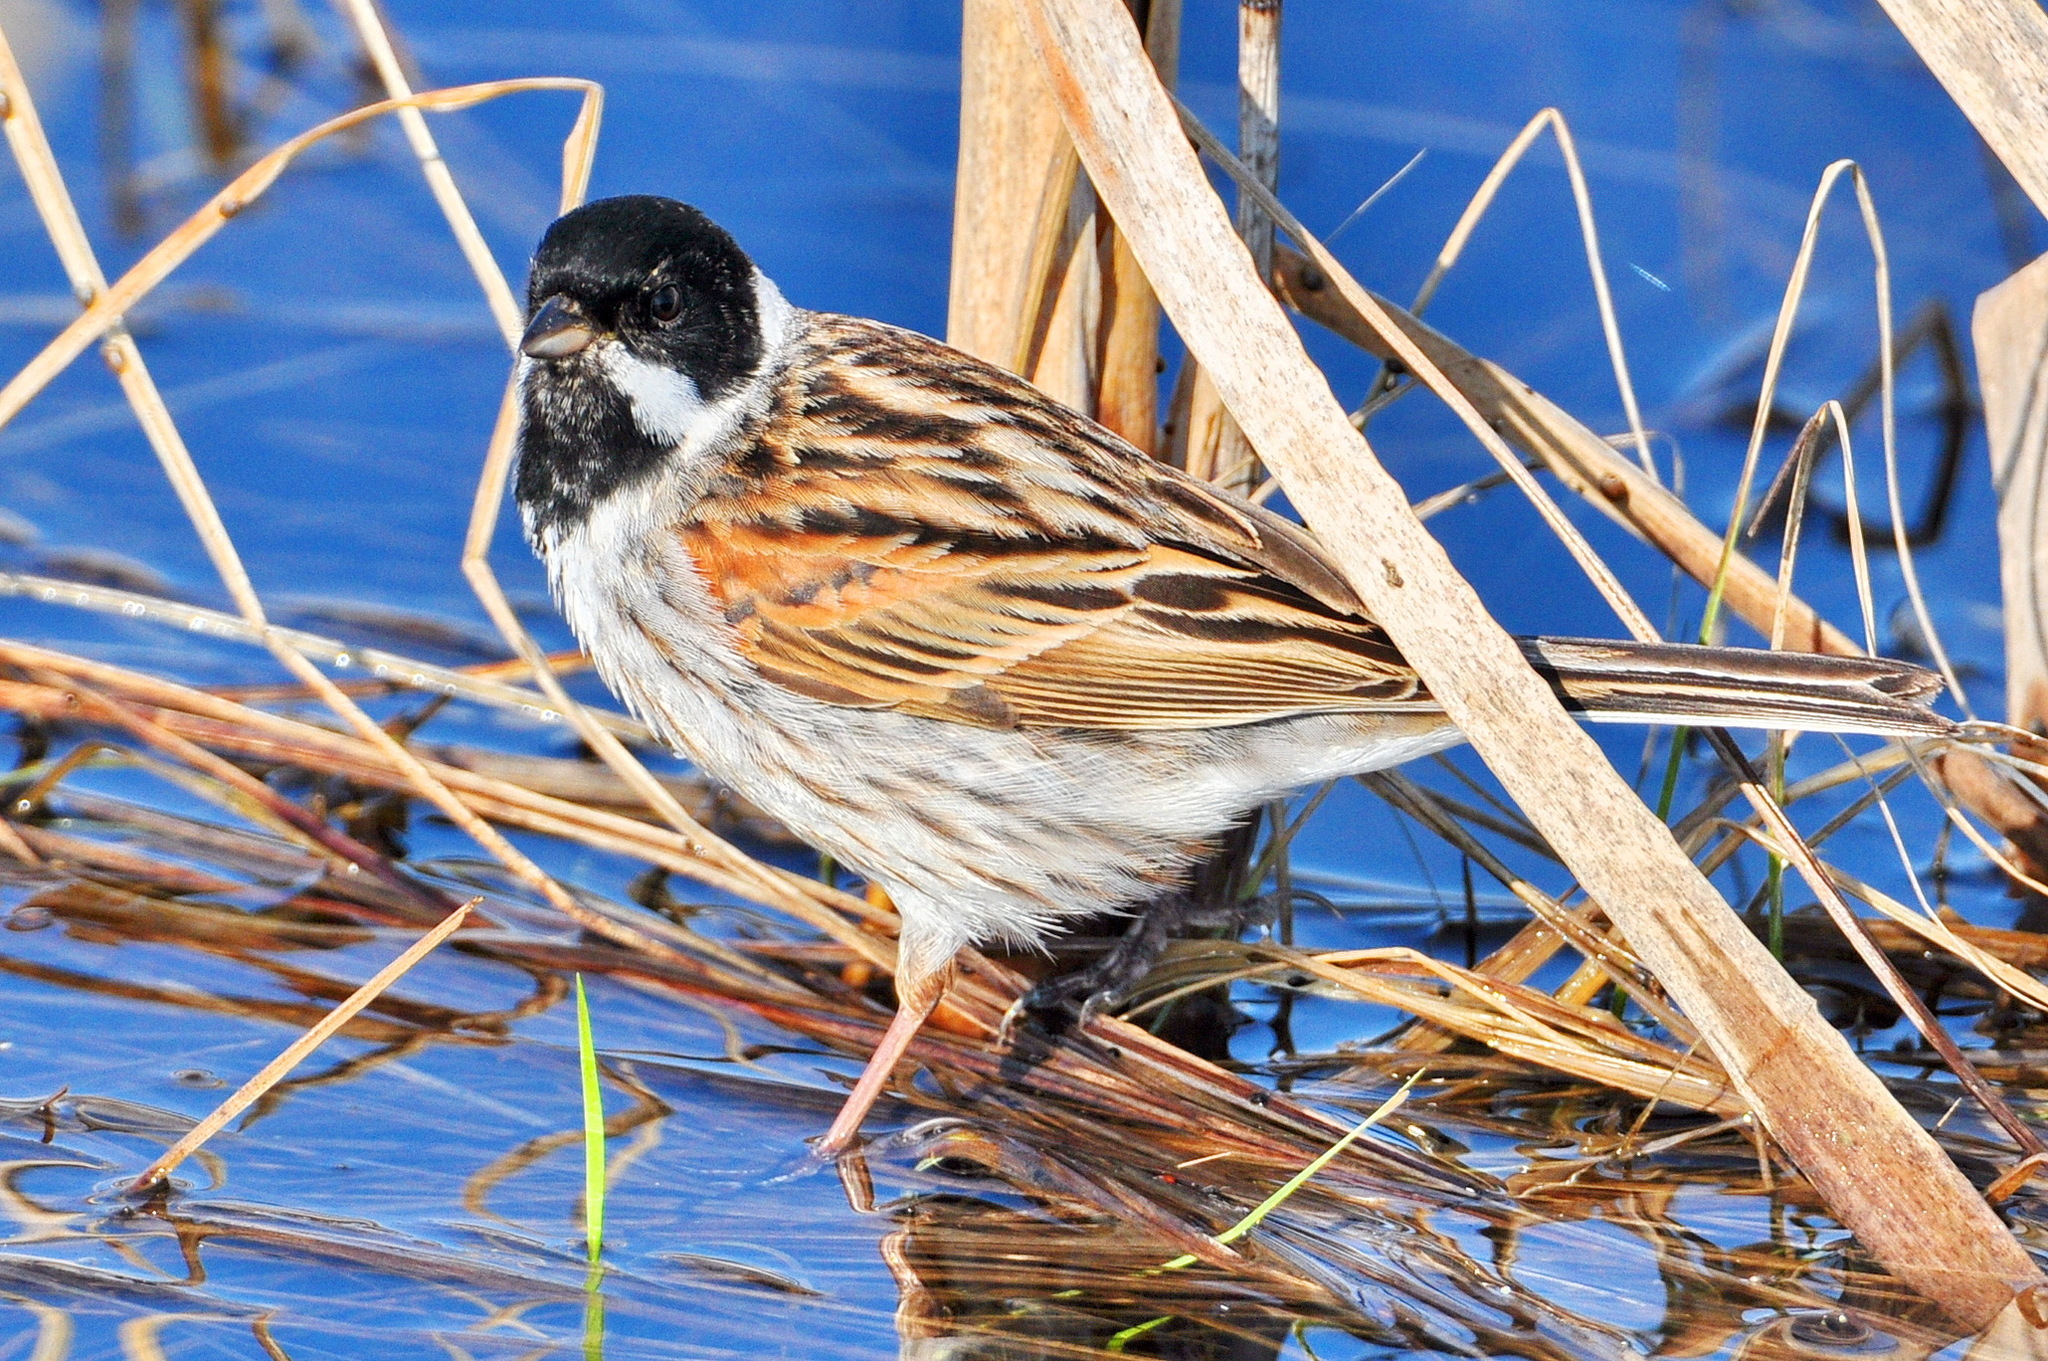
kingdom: Animalia
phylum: Chordata
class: Aves
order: Passeriformes
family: Emberizidae
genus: Emberiza
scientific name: Emberiza schoeniclus
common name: Reed bunting
